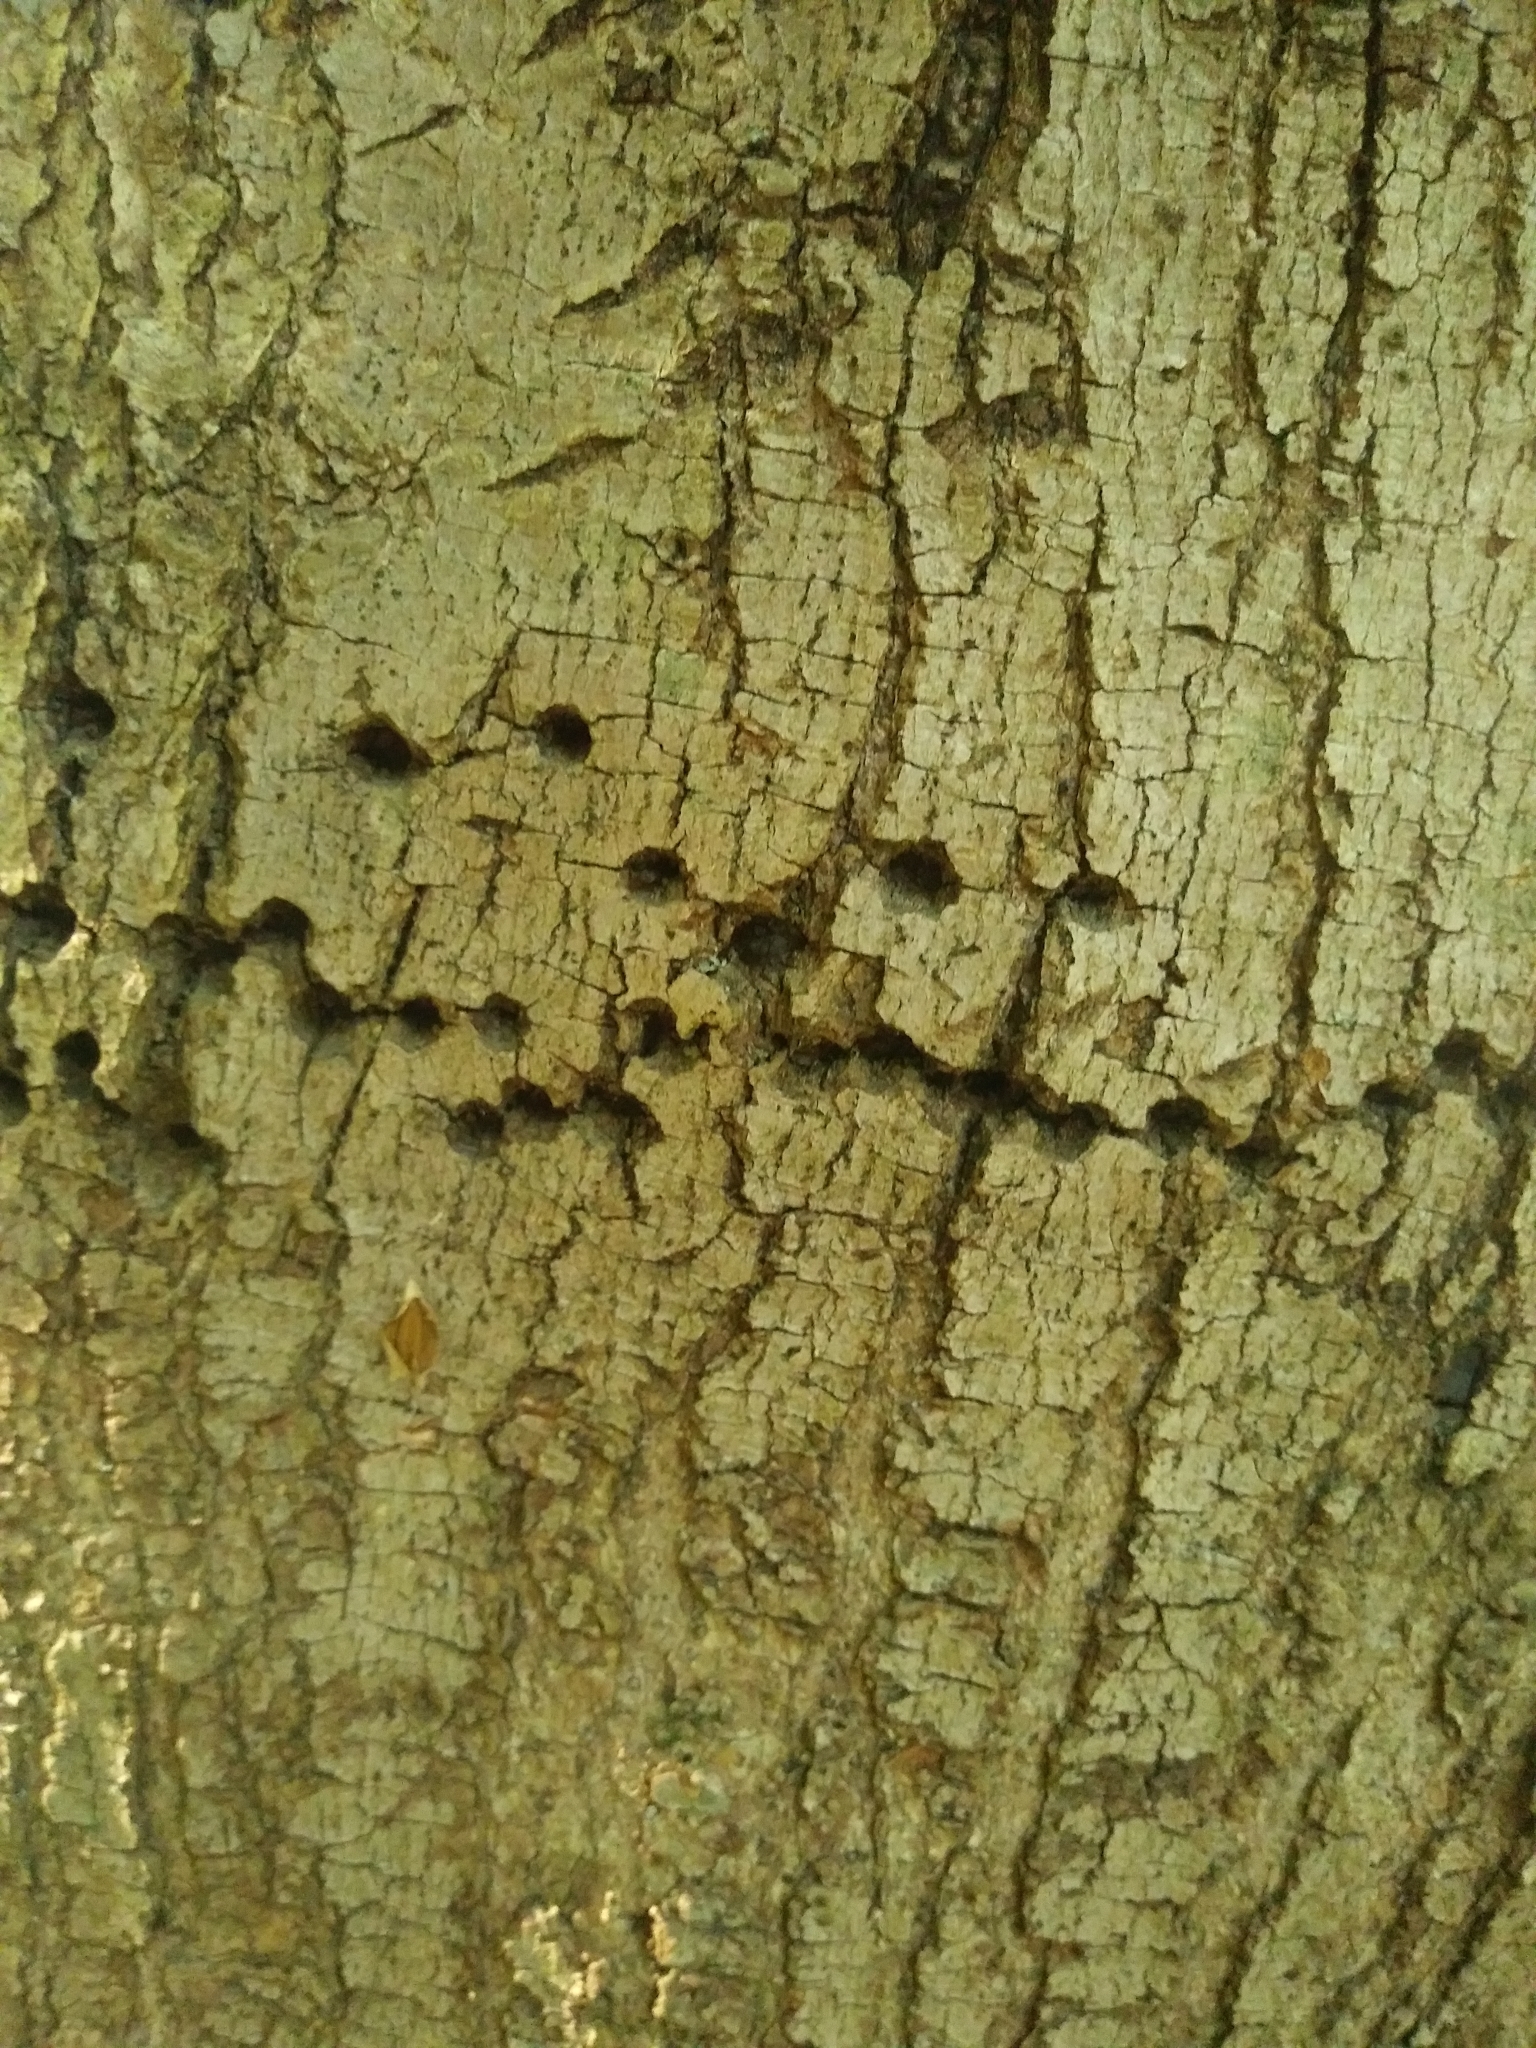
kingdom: Animalia
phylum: Chordata
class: Aves
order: Piciformes
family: Picidae
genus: Sphyrapicus
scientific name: Sphyrapicus varius
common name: Yellow-bellied sapsucker
